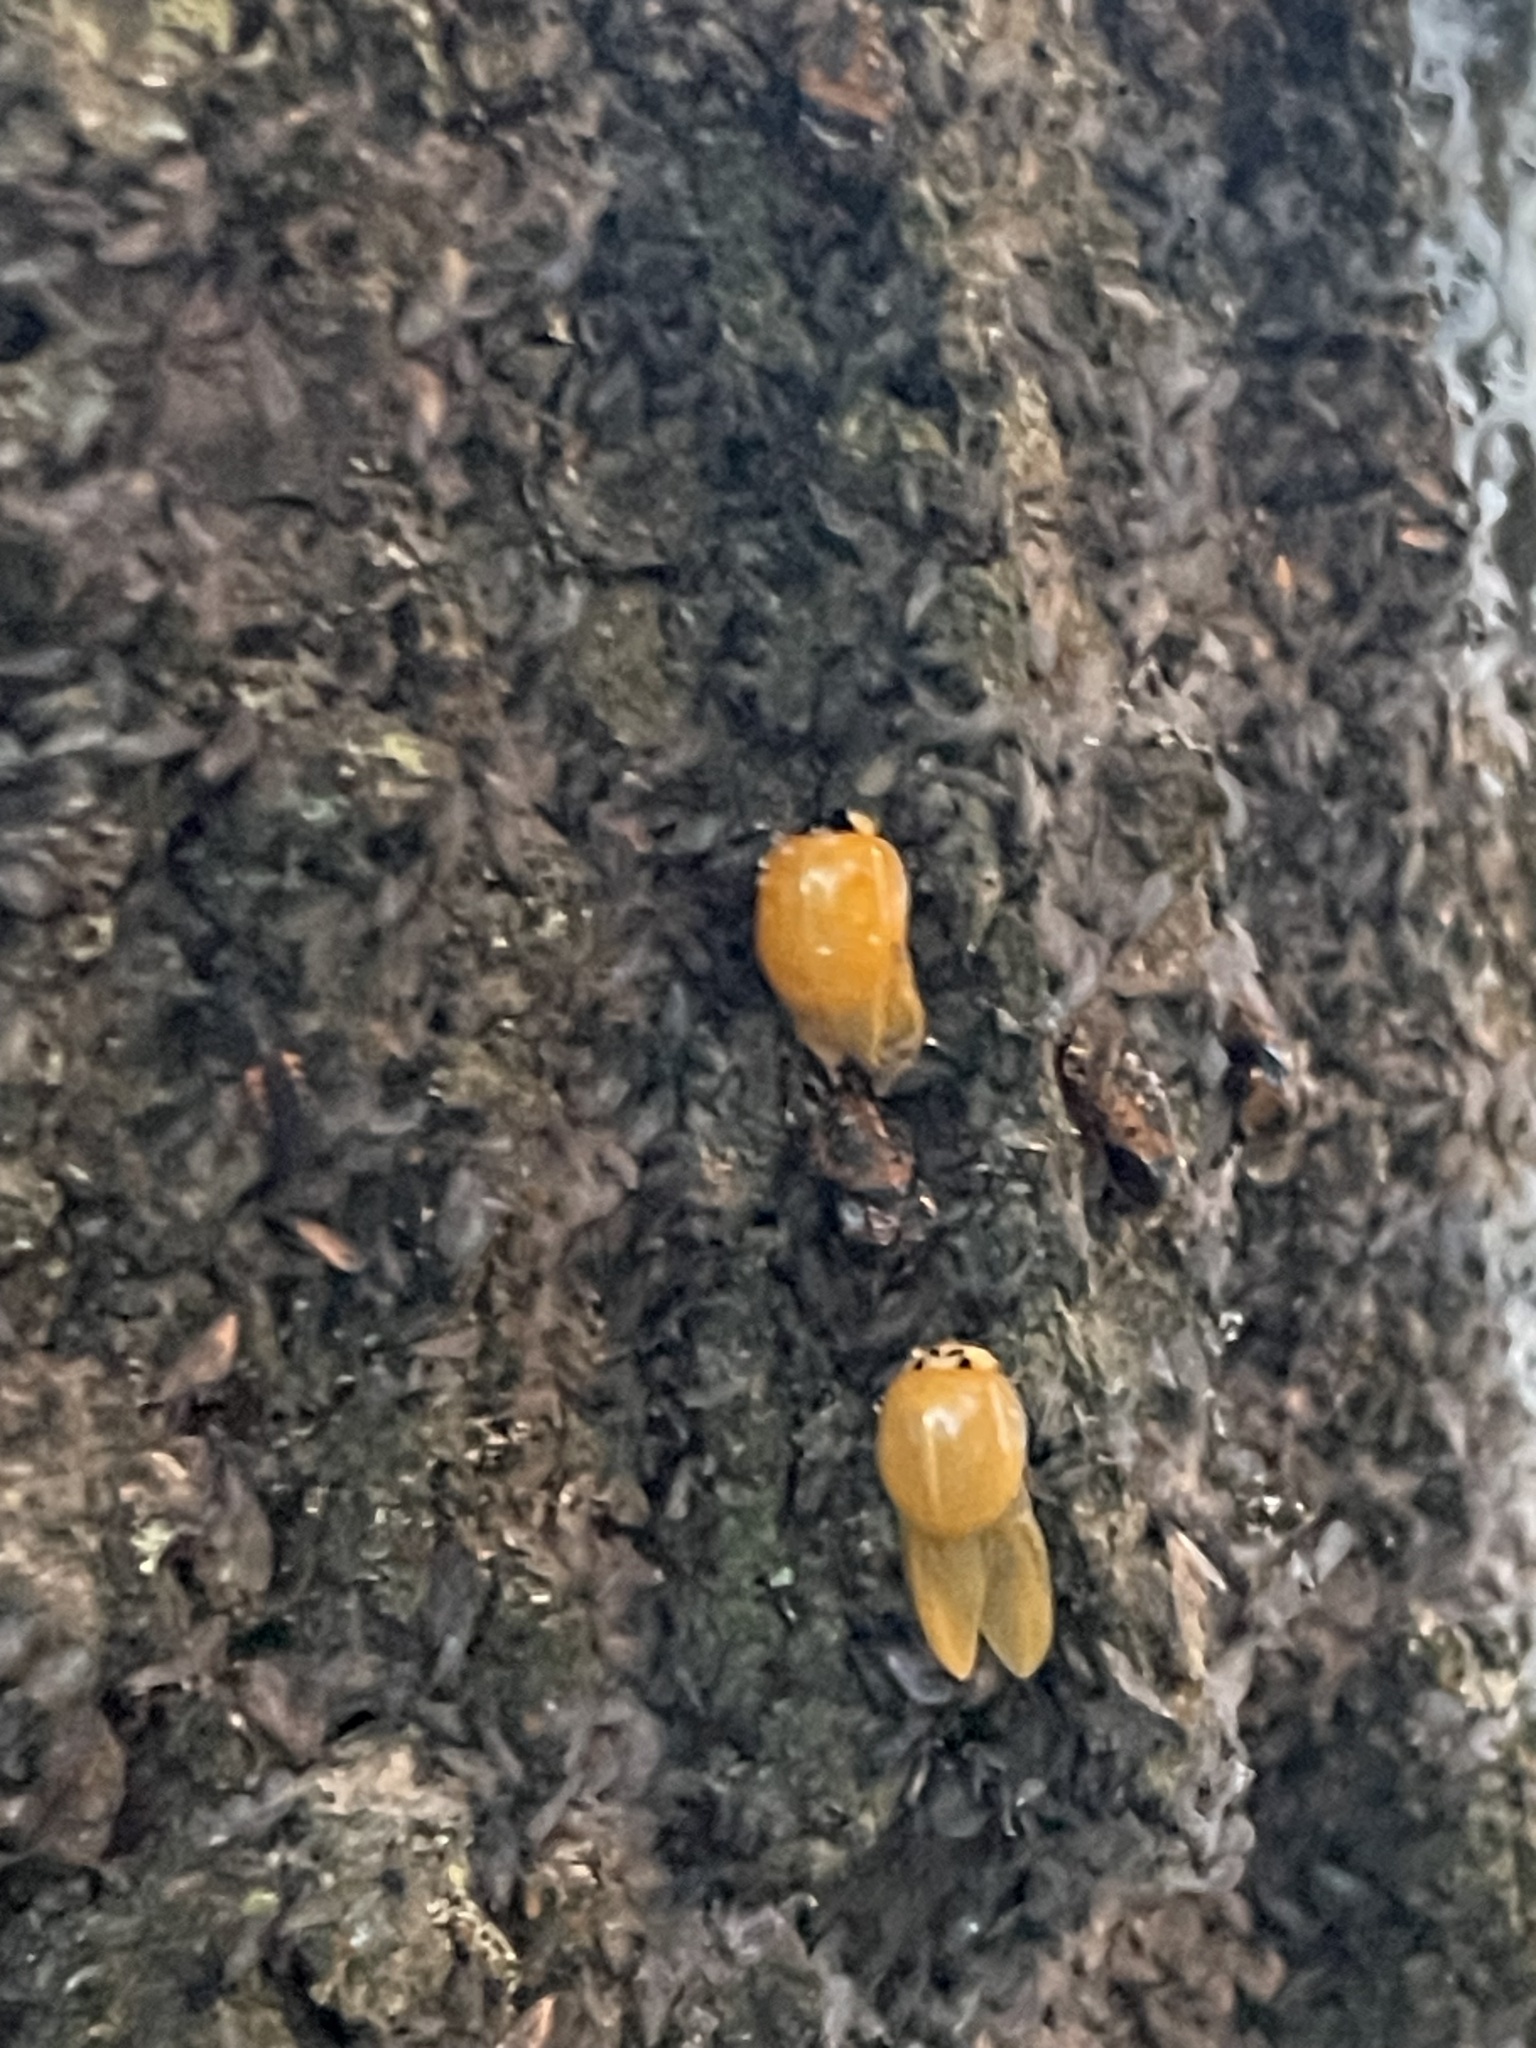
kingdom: Animalia
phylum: Arthropoda
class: Insecta
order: Coleoptera
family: Coccinellidae
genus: Harmonia
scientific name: Harmonia axyridis
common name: Harlequin ladybird
